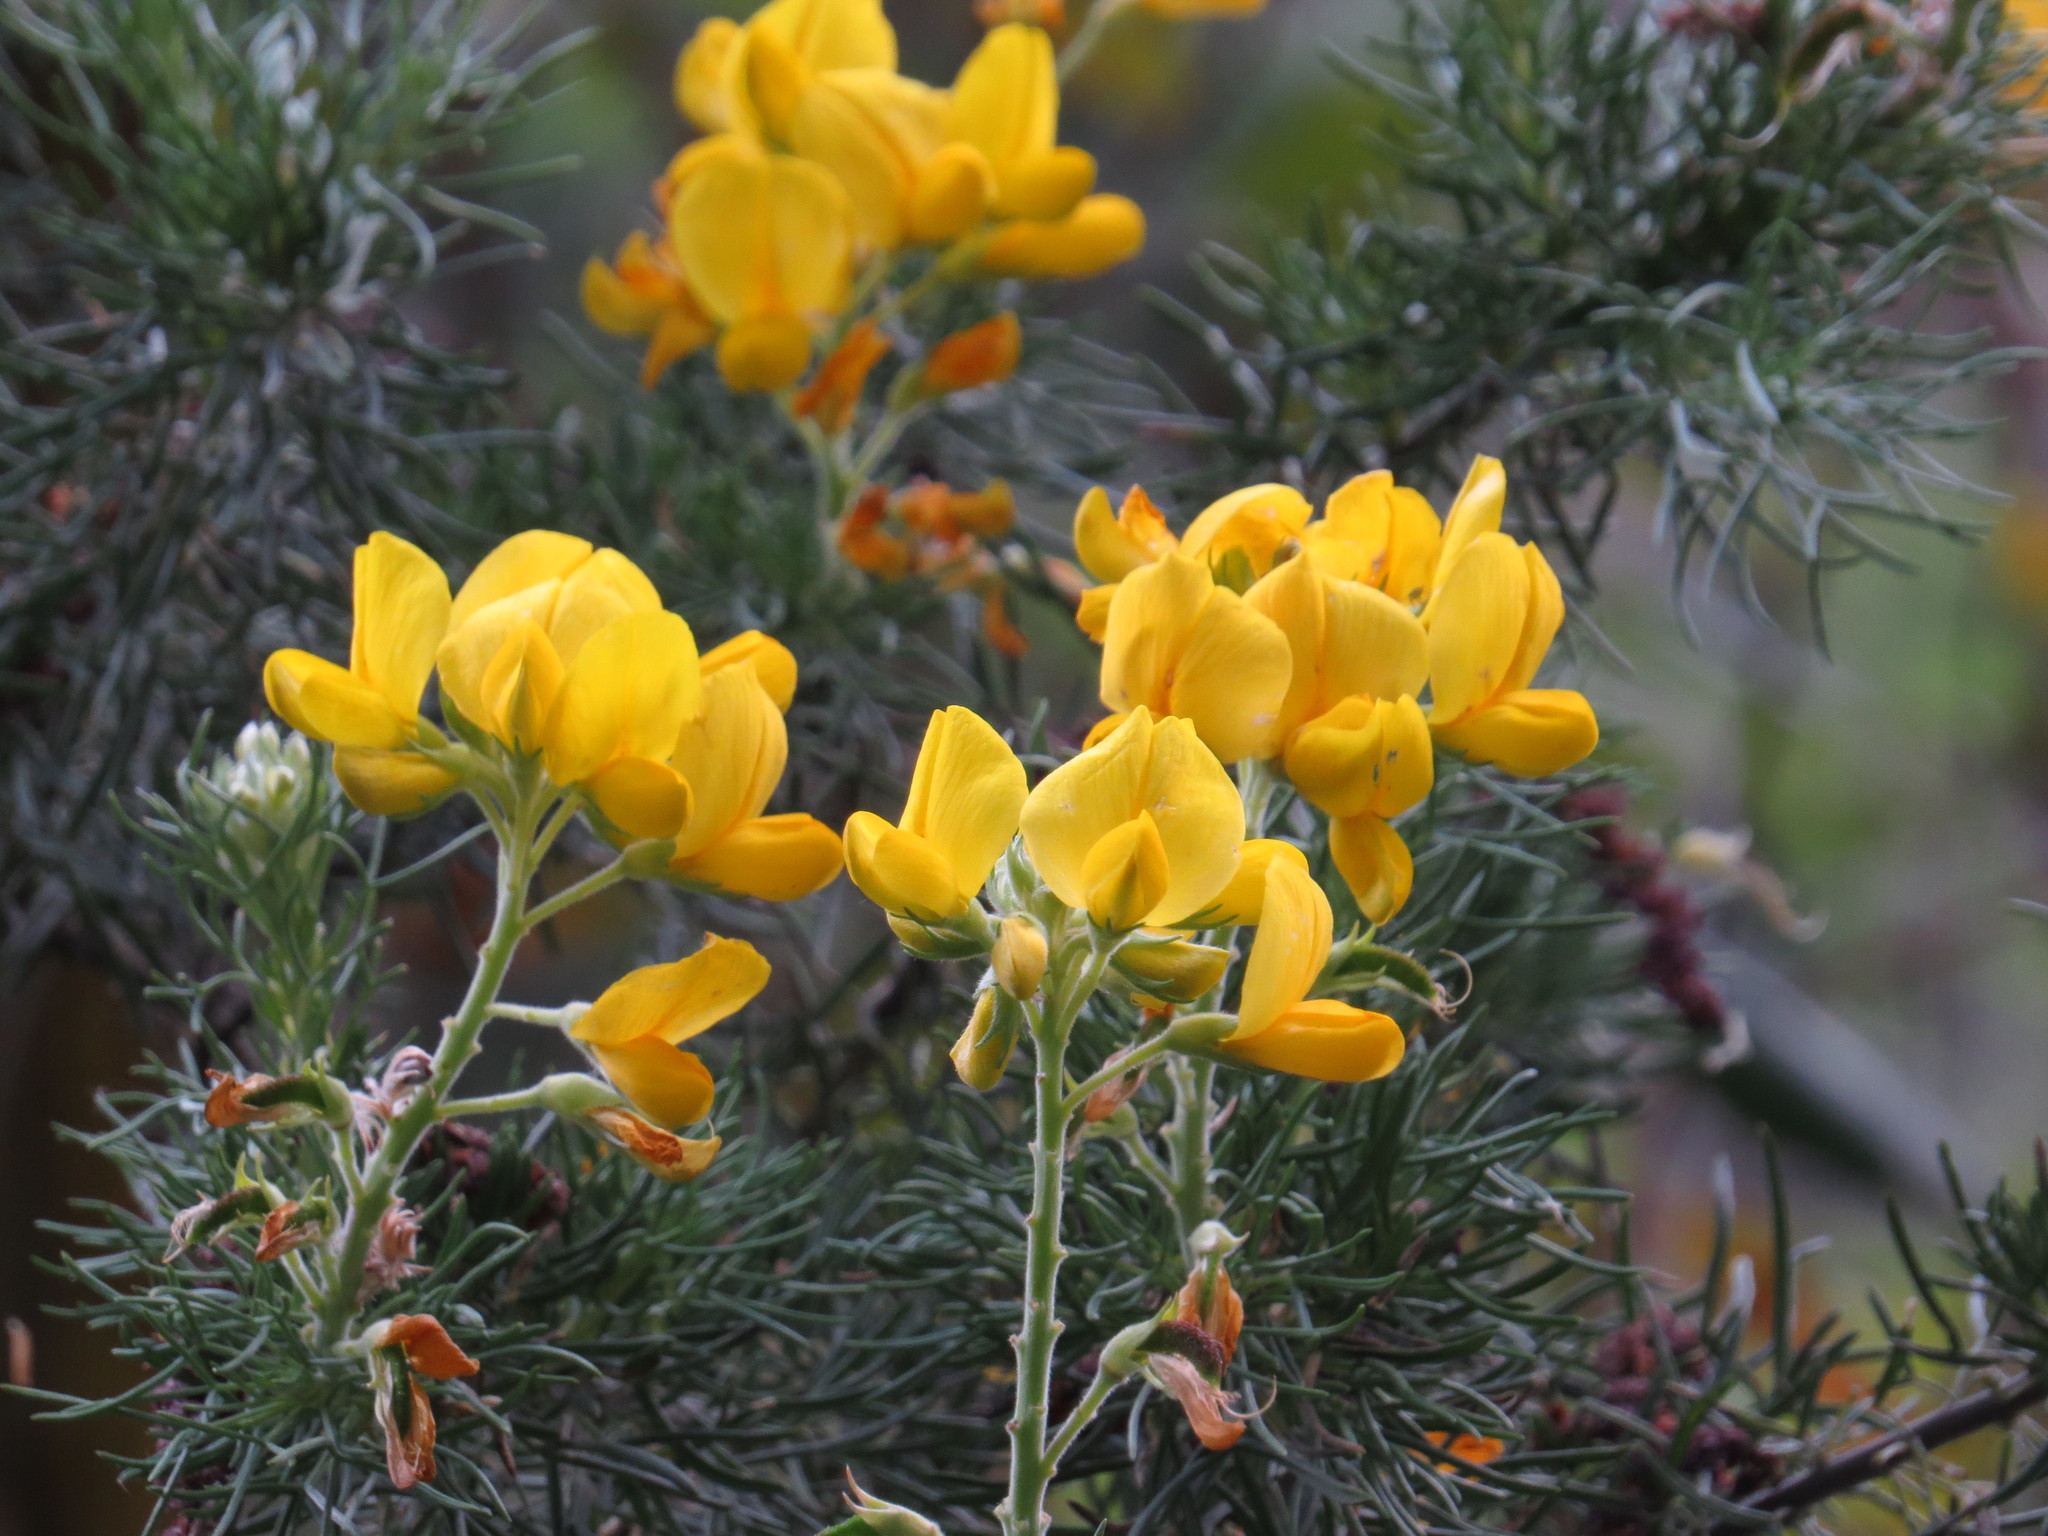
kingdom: Plantae
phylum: Tracheophyta
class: Magnoliopsida
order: Fabales
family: Fabaceae
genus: Adenocarpus
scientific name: Adenocarpus decorticans
